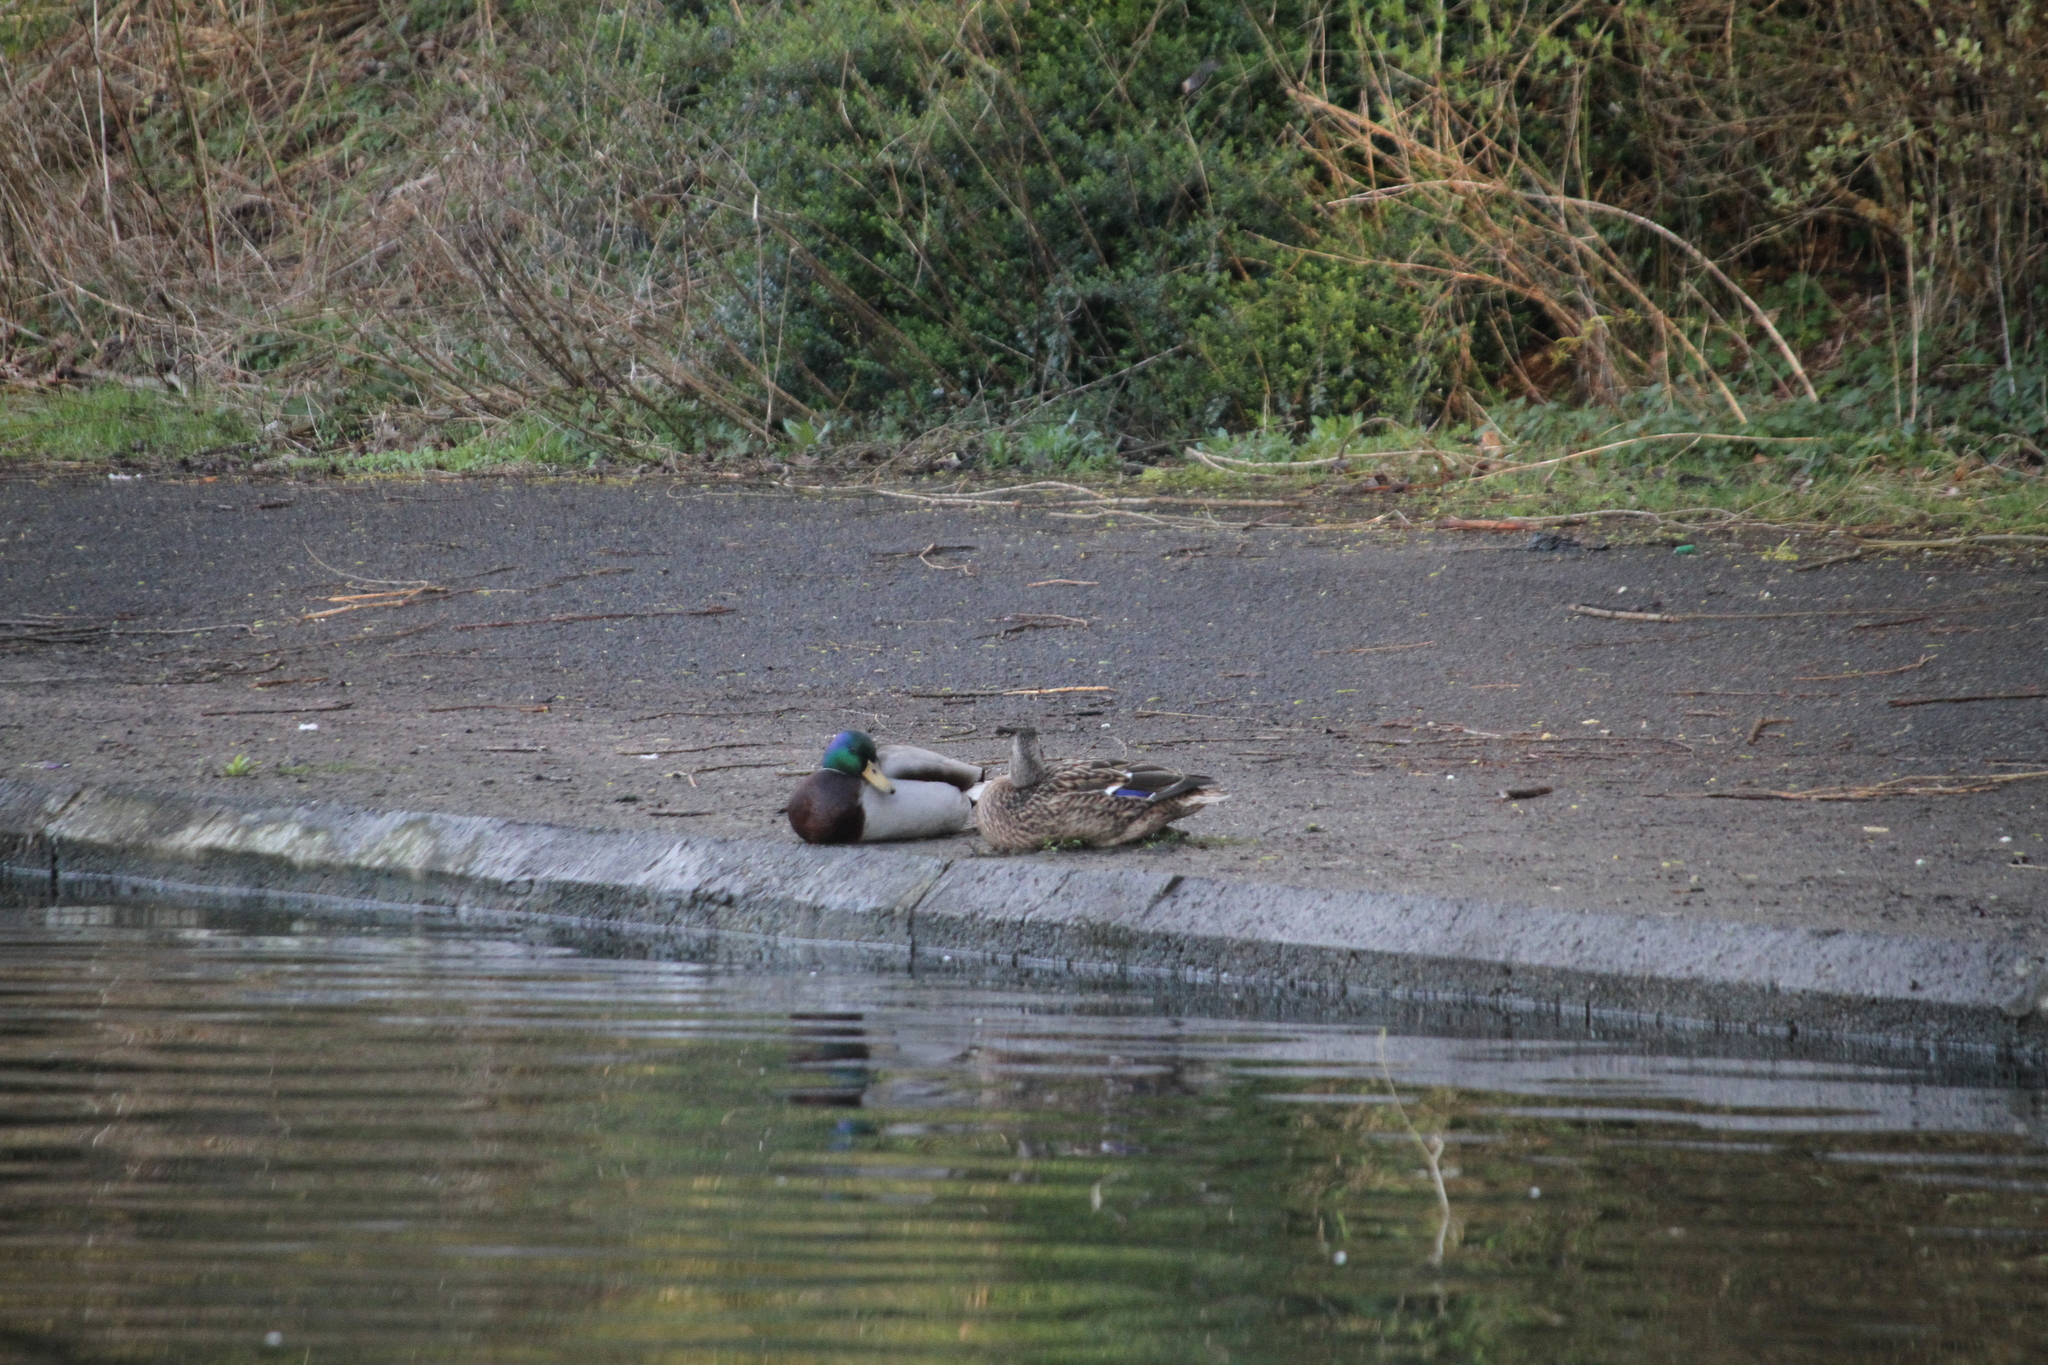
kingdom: Animalia
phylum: Chordata
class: Aves
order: Anseriformes
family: Anatidae
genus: Anas
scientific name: Anas platyrhynchos
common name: Mallard
